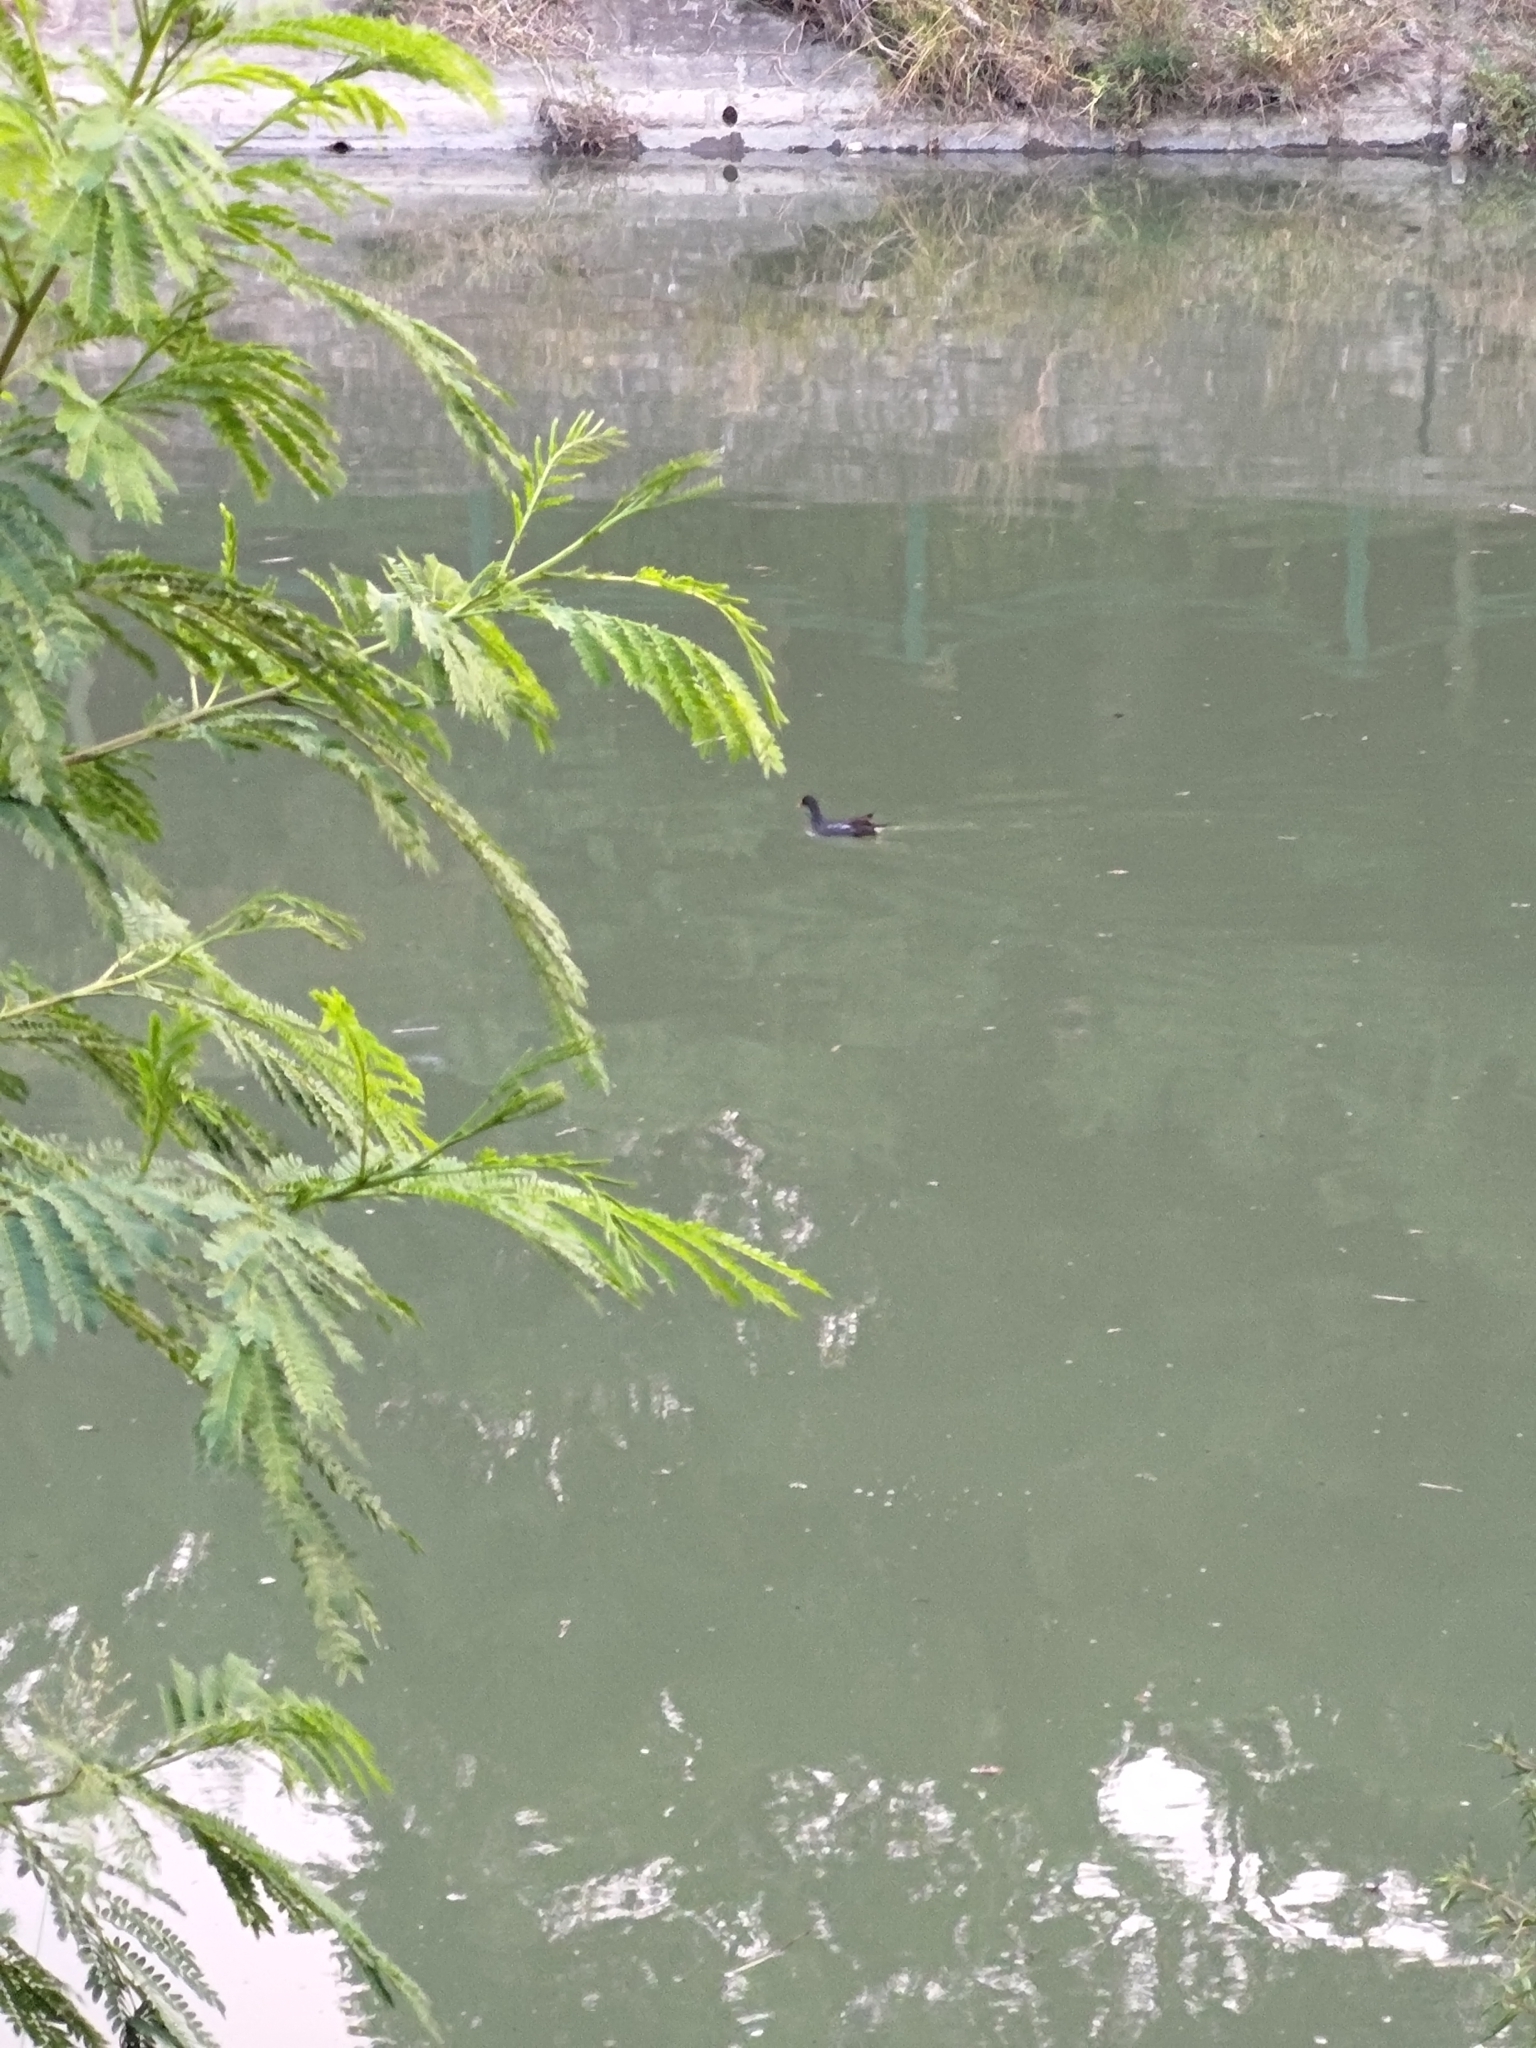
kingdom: Animalia
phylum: Chordata
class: Aves
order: Gruiformes
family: Rallidae
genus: Gallinula
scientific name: Gallinula chloropus
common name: Common moorhen
